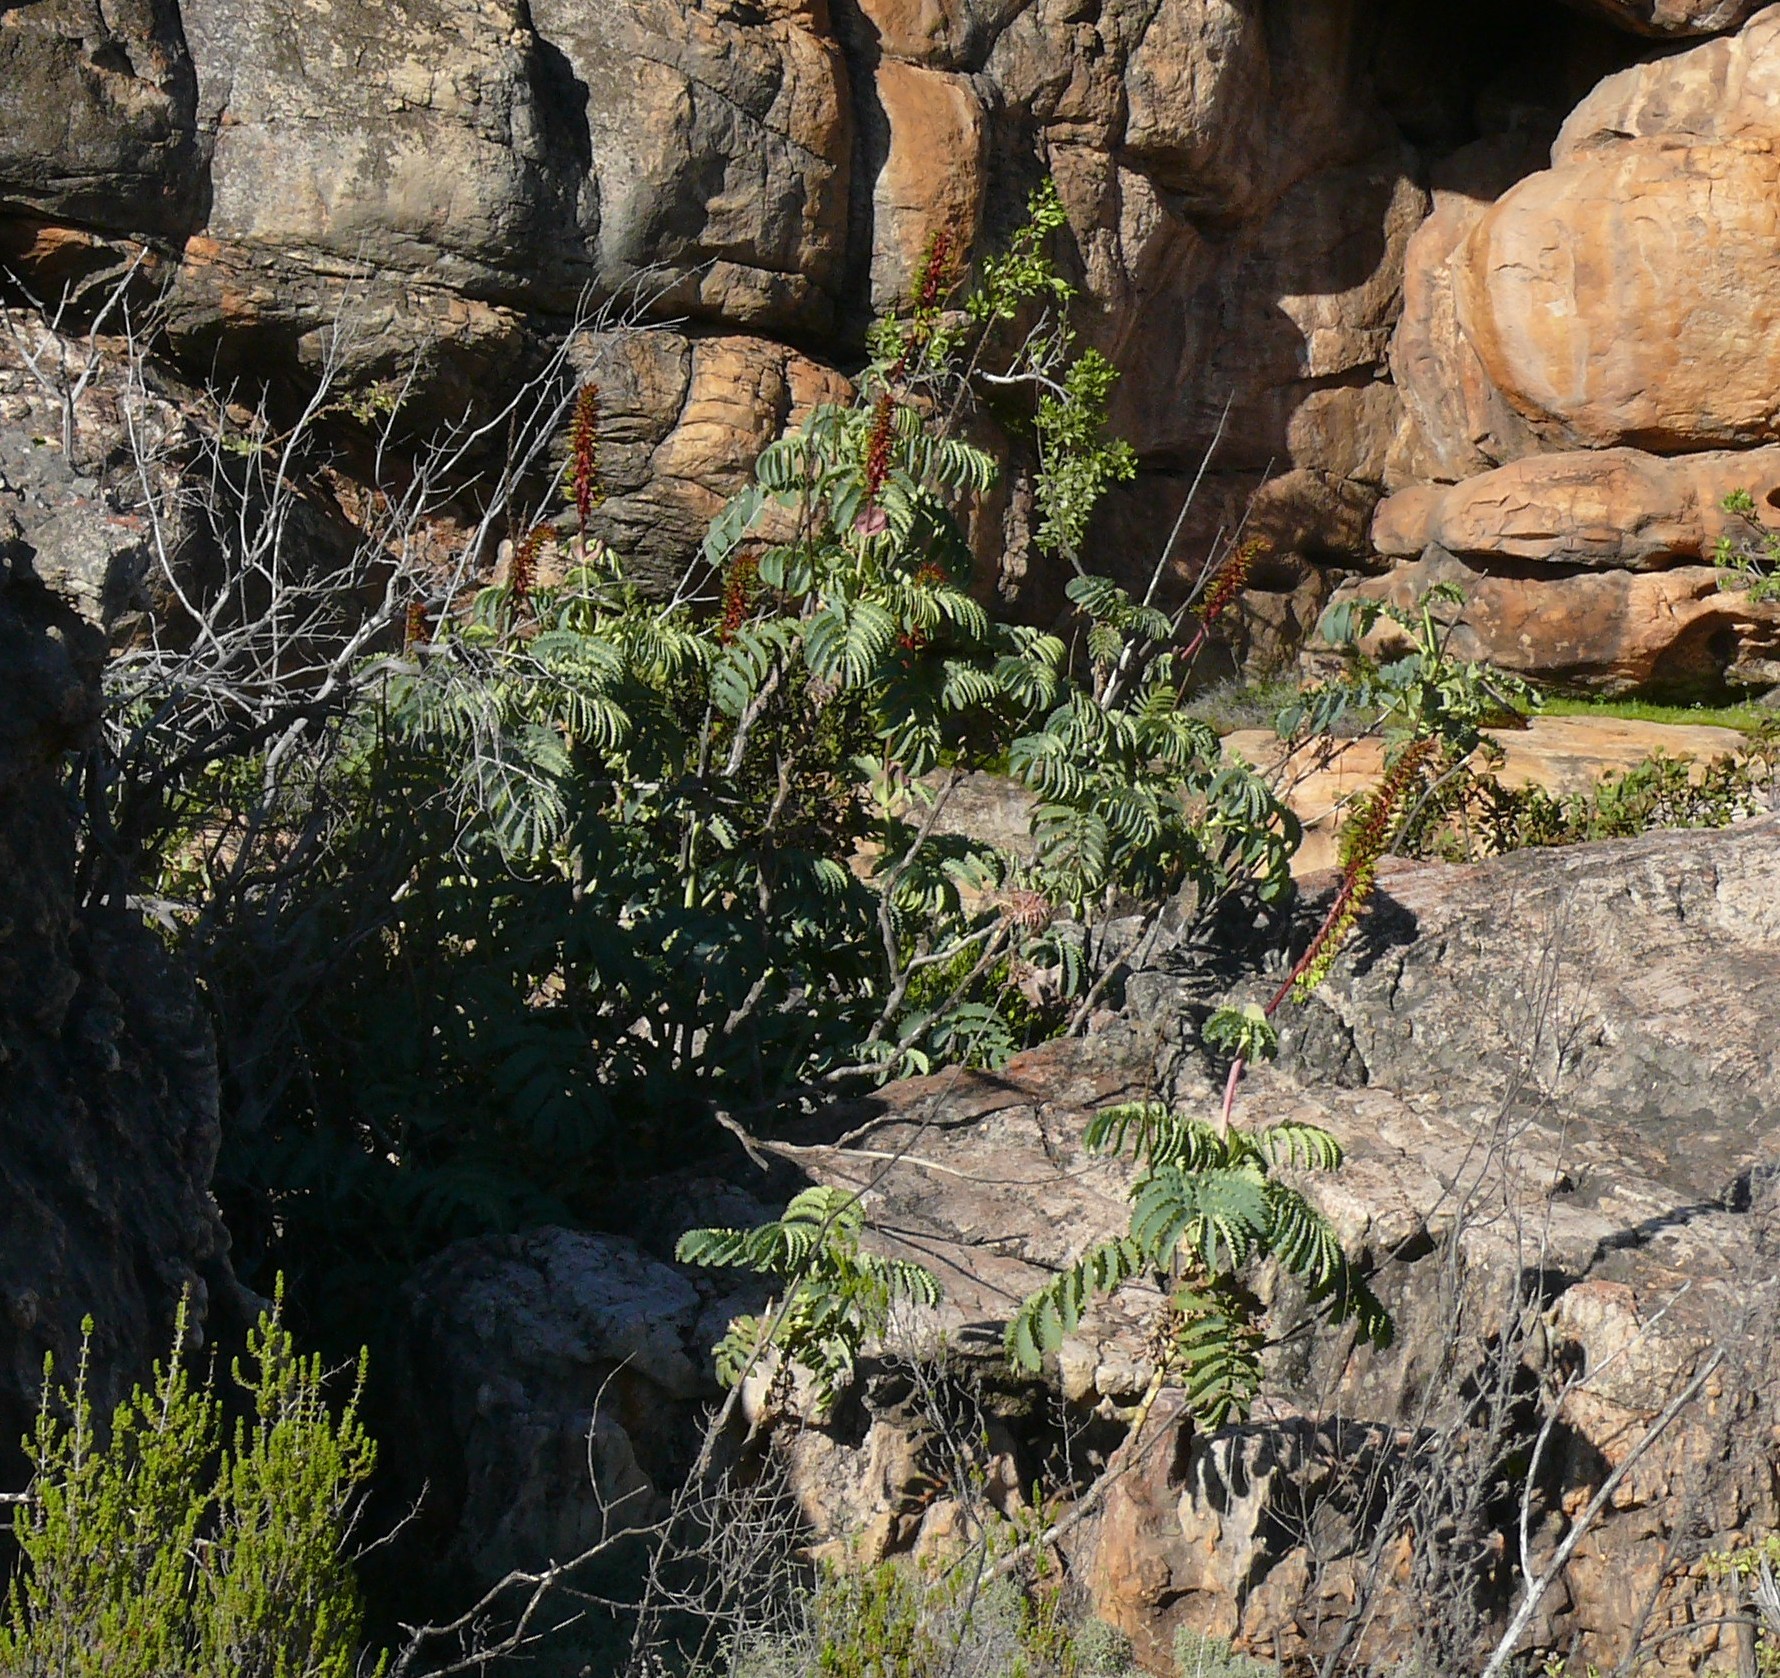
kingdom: Plantae
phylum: Tracheophyta
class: Magnoliopsida
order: Geraniales
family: Melianthaceae
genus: Melianthus
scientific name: Melianthus major
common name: Honey-flower
